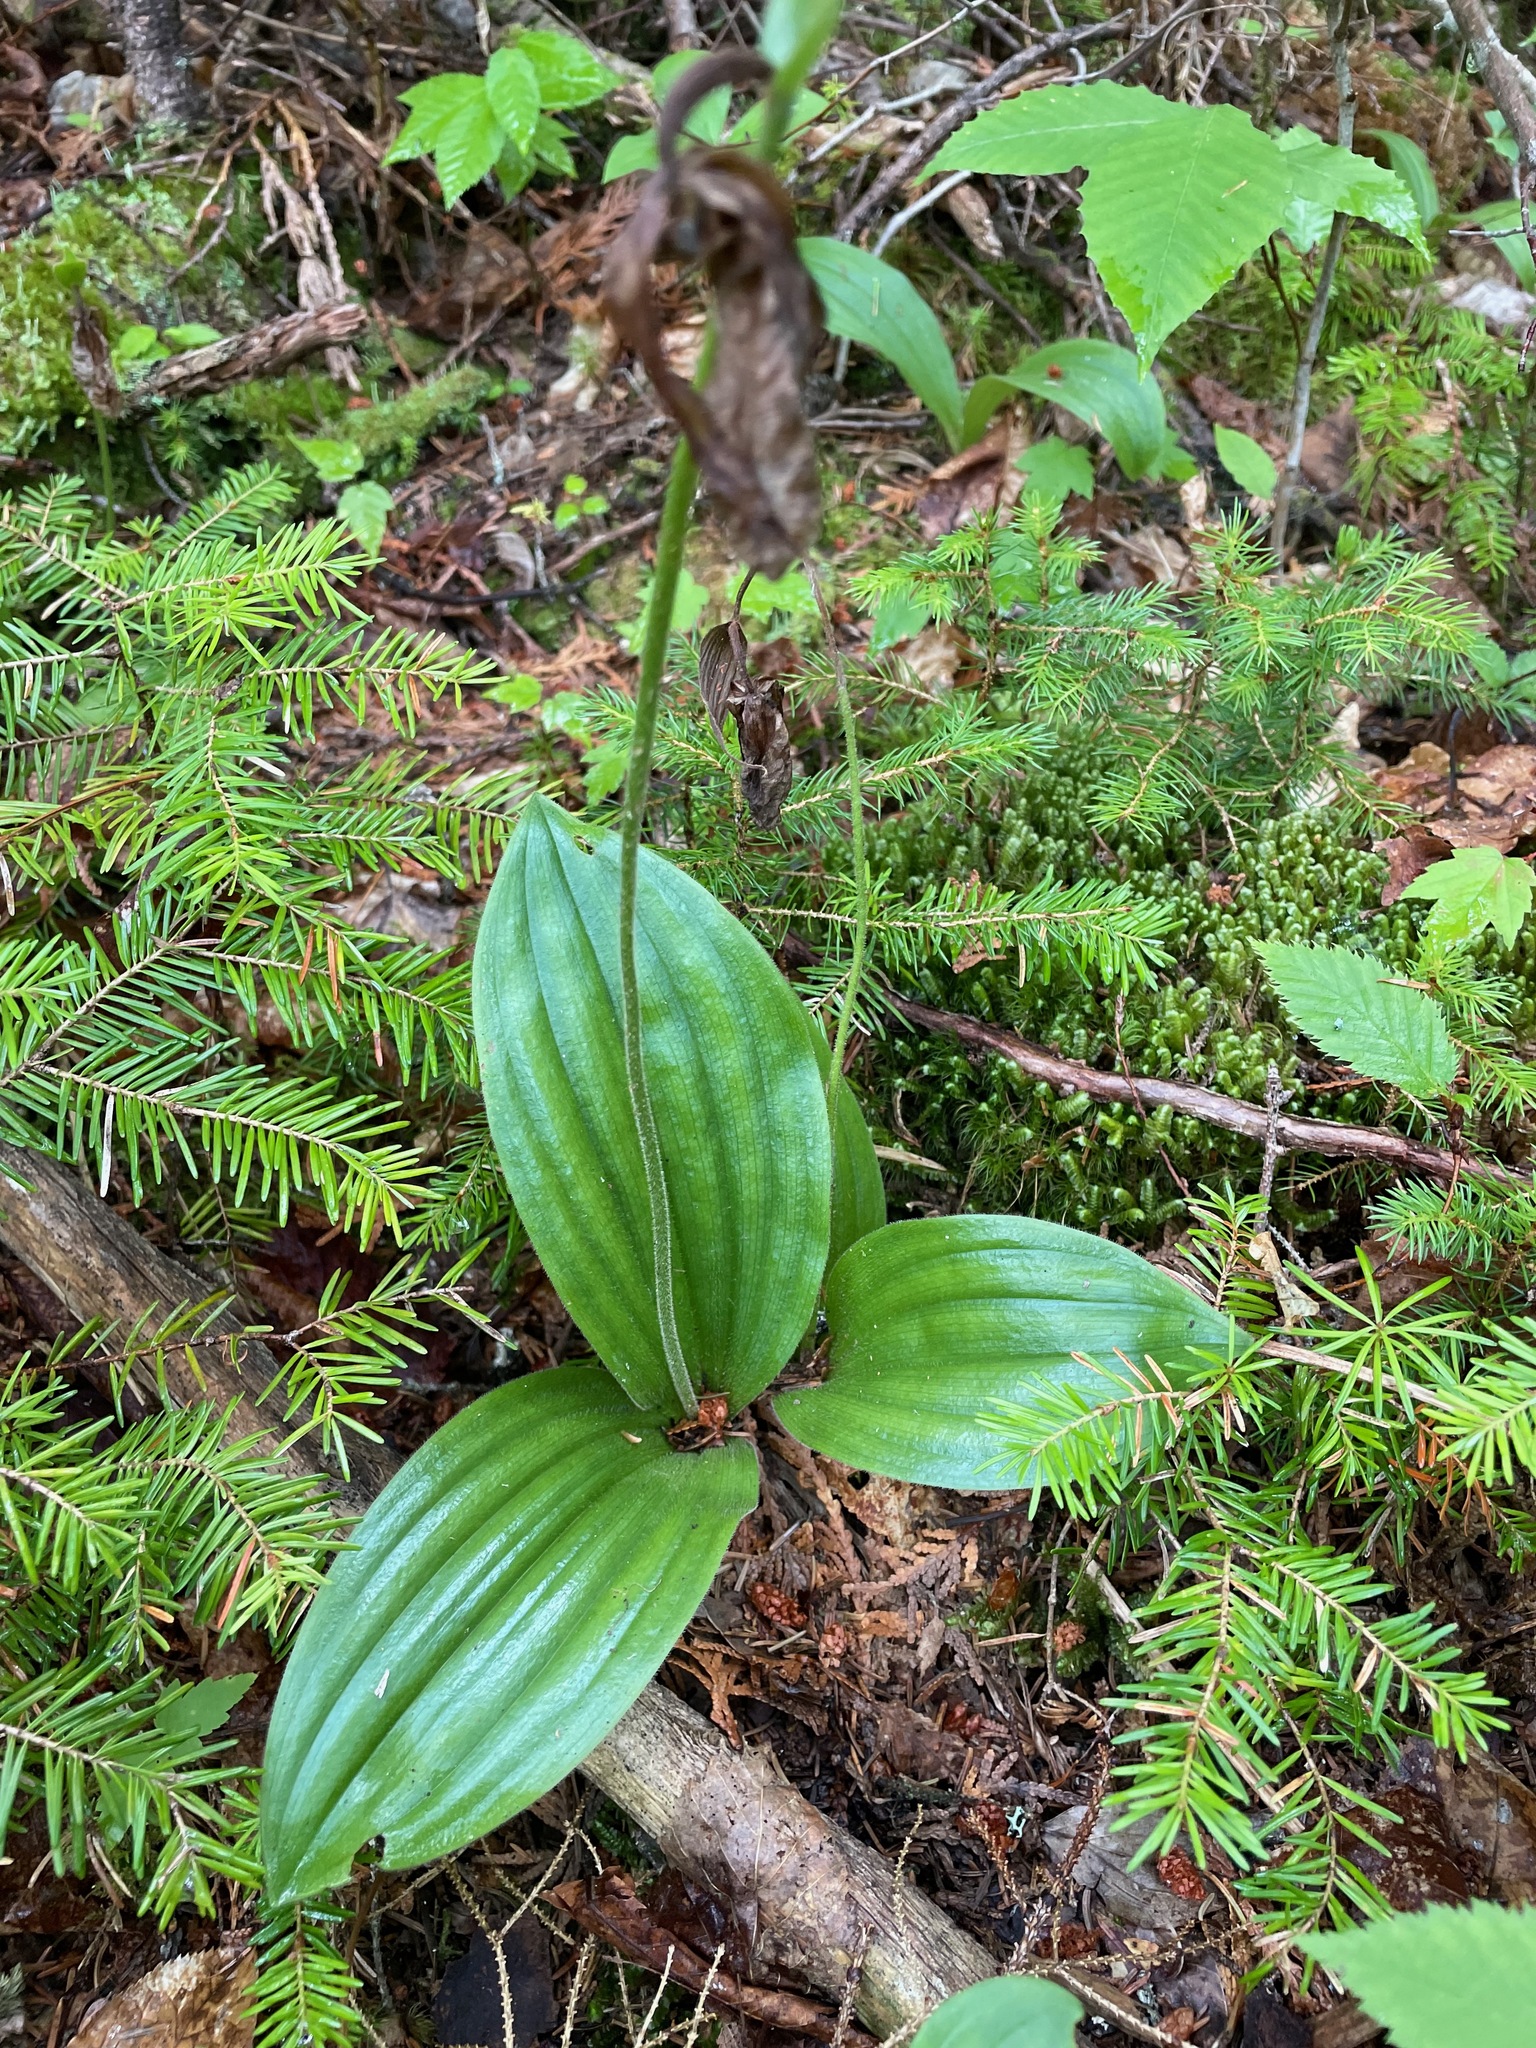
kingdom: Plantae
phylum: Tracheophyta
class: Liliopsida
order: Asparagales
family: Orchidaceae
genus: Cypripedium
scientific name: Cypripedium acaule
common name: Pink lady's-slipper
